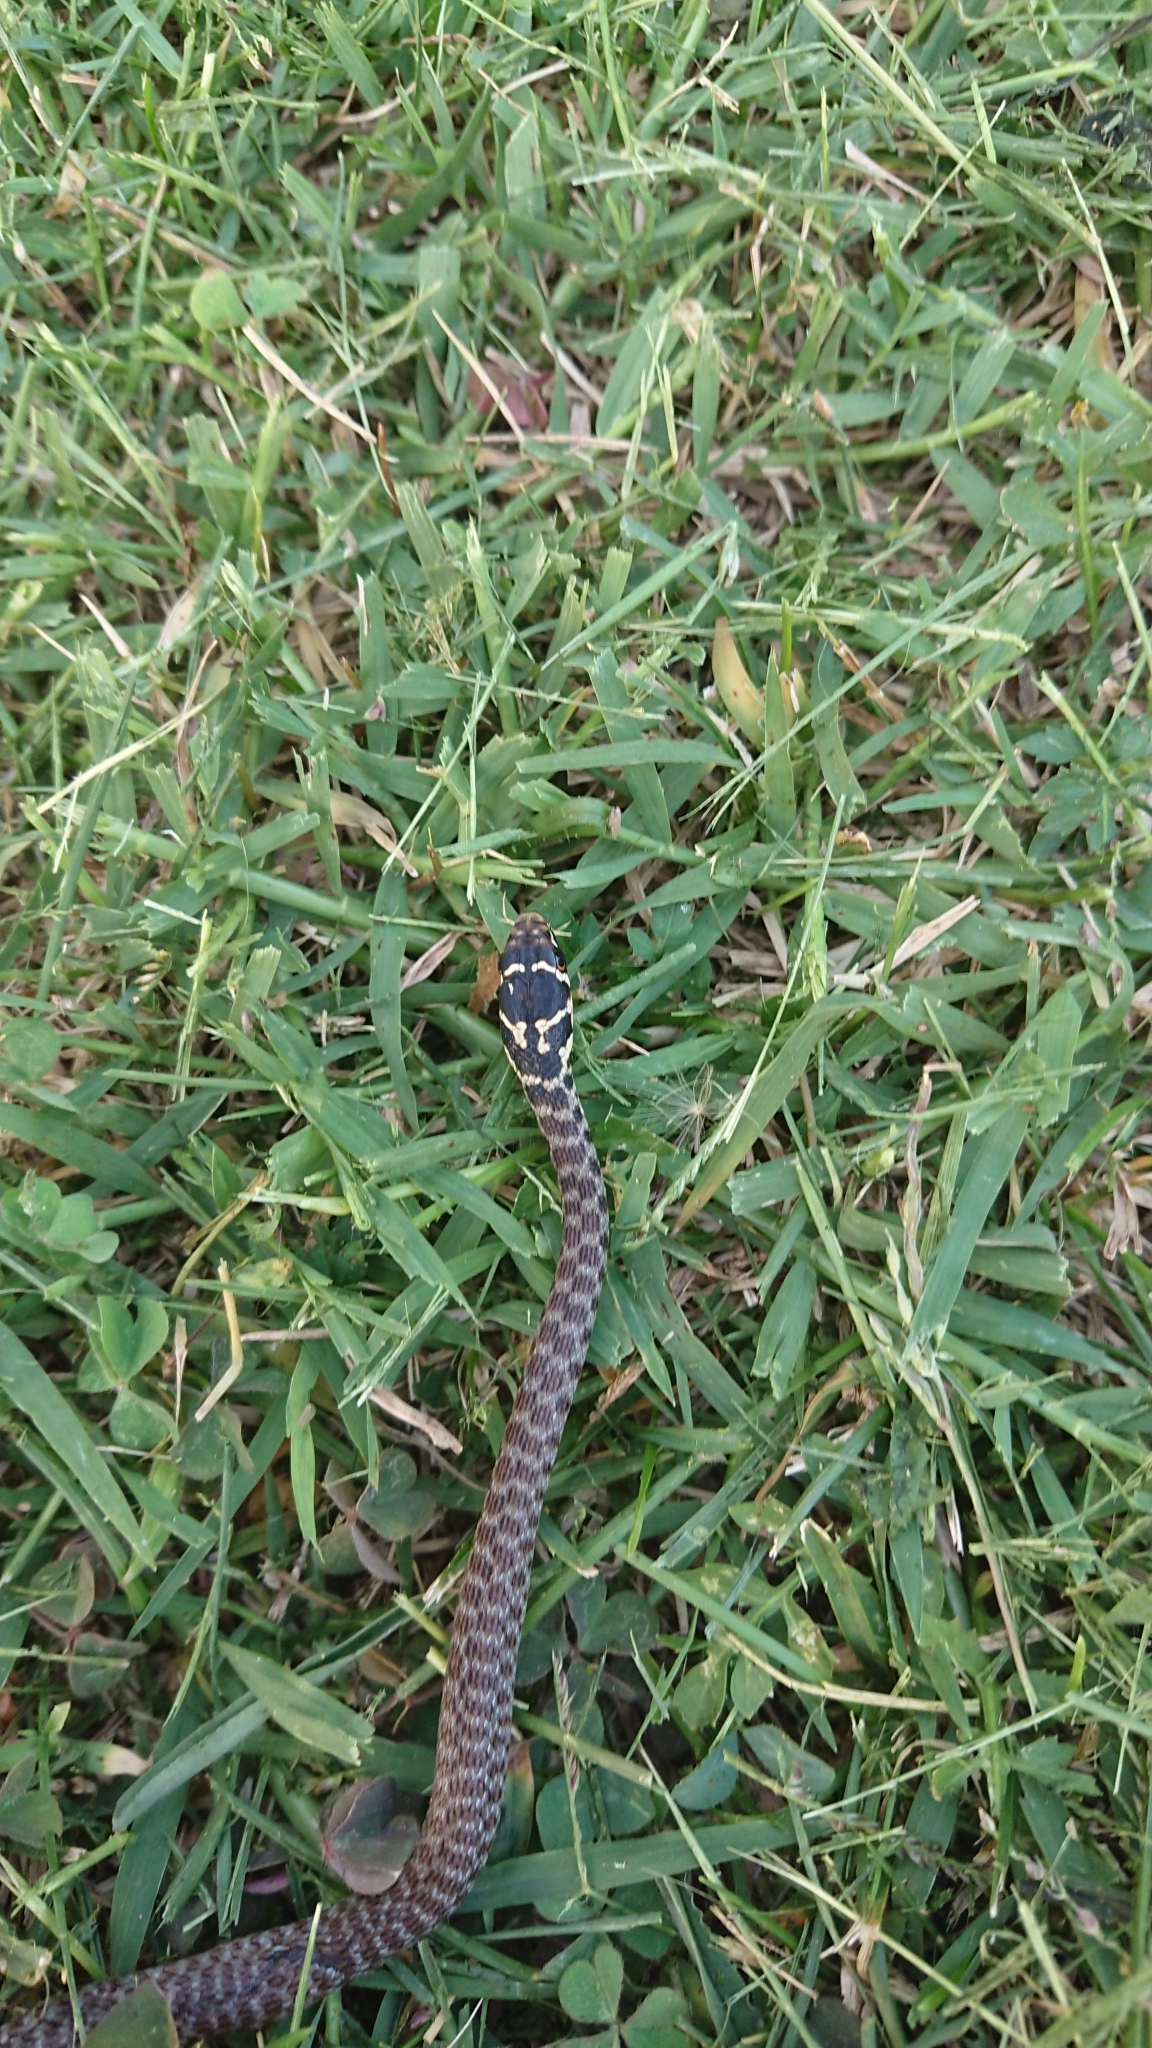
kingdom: Animalia
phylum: Chordata
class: Squamata
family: Colubridae
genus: Hierophis
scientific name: Hierophis viridiflavus
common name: Green whip snake
